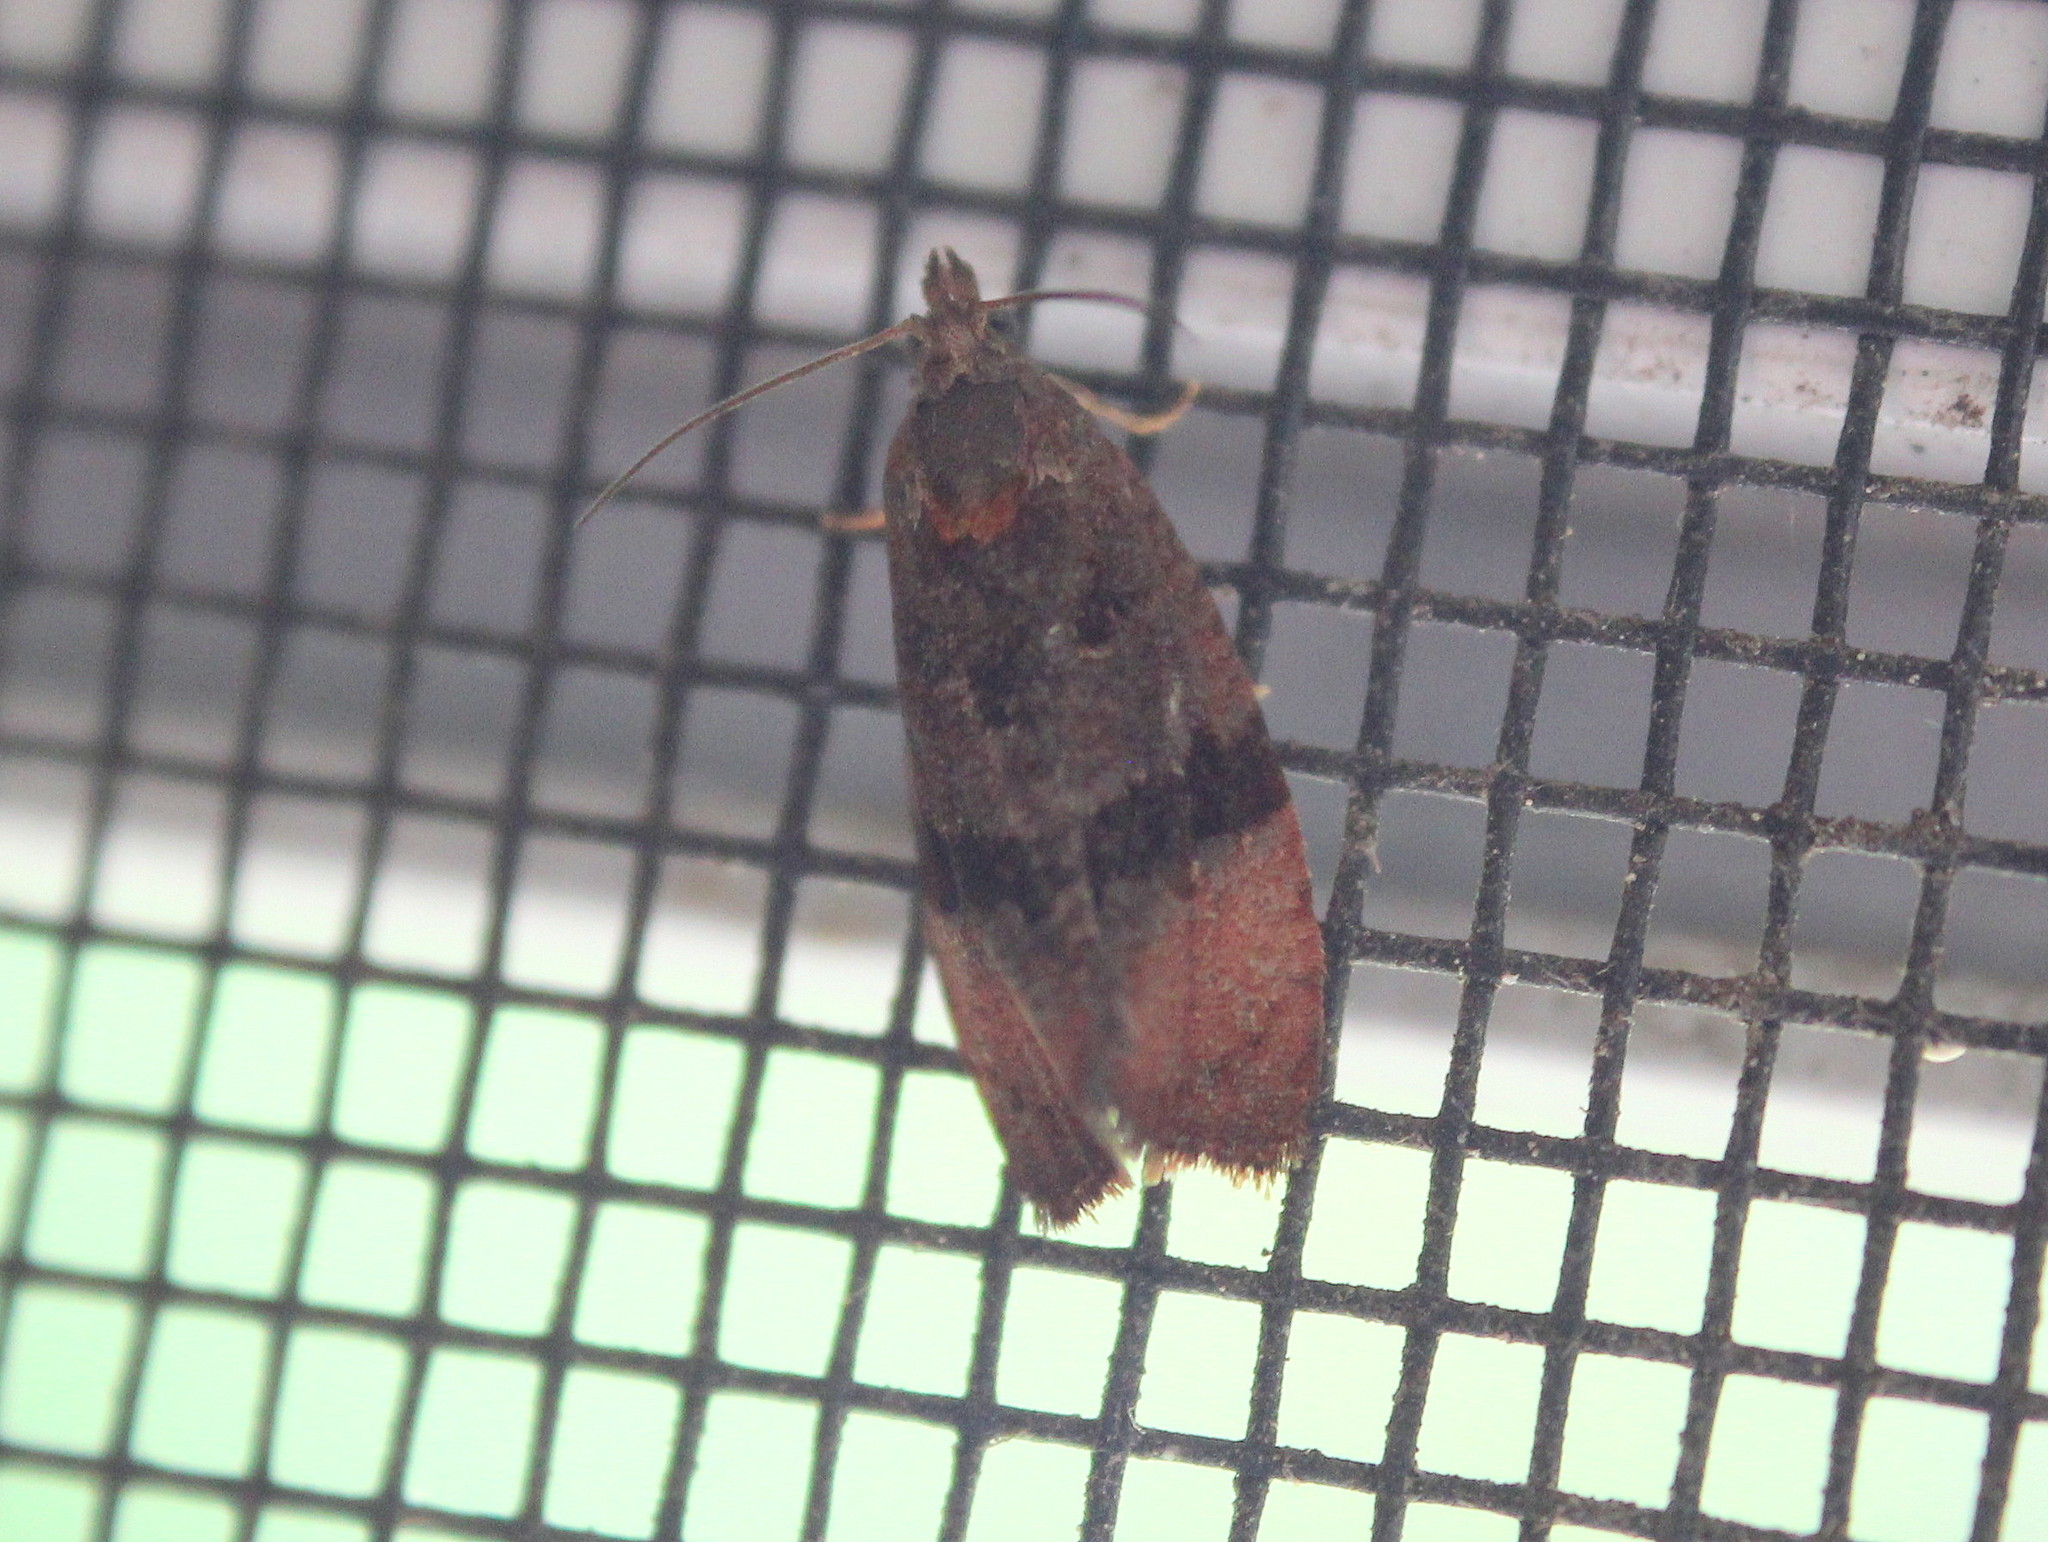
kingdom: Animalia
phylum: Arthropoda
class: Insecta
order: Lepidoptera
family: Tortricidae
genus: Evora
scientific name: Evora hemidesma
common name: Spirea leaftier moth
